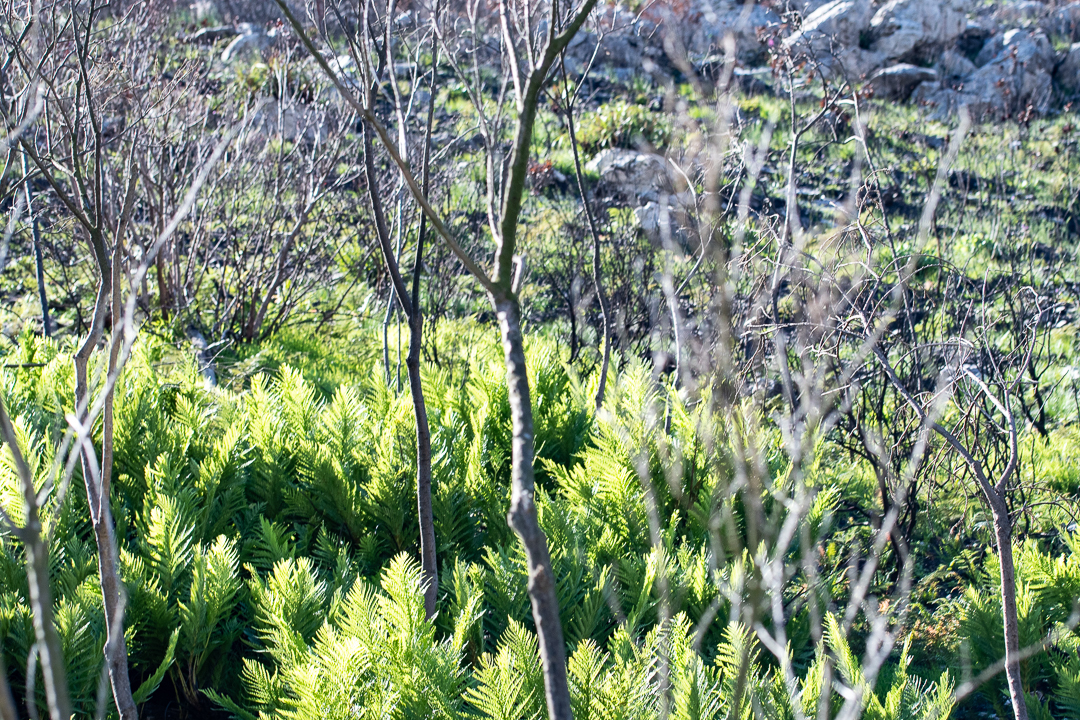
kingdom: Plantae
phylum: Tracheophyta
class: Polypodiopsida
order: Osmundales
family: Osmundaceae
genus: Todea
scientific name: Todea barbara
